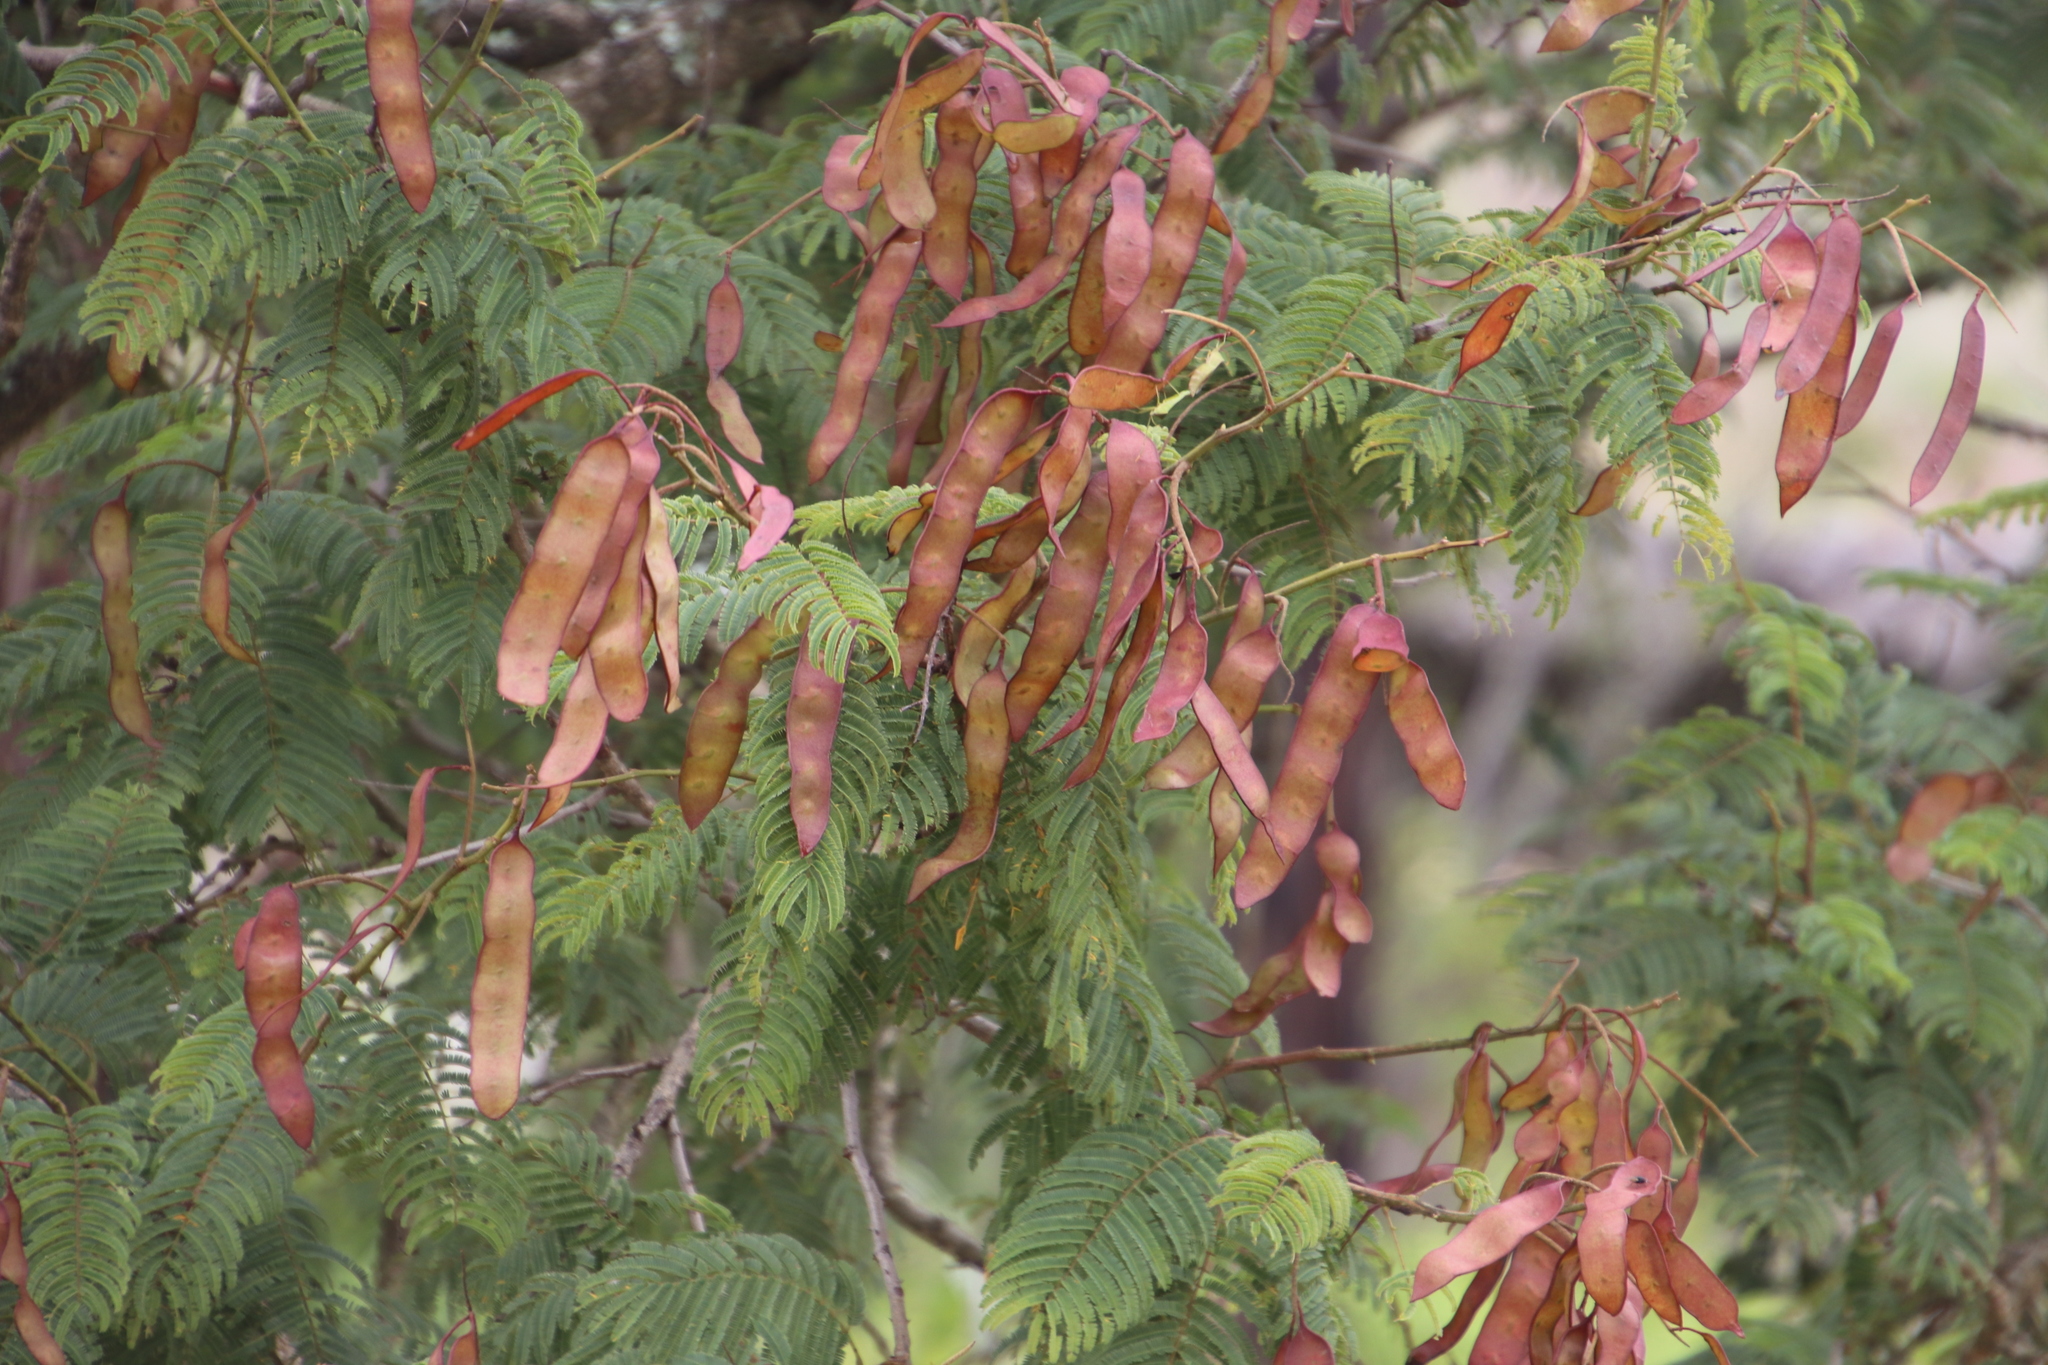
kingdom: Plantae
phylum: Tracheophyta
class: Magnoliopsida
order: Fabales
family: Fabaceae
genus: Senegalia
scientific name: Senegalia ataxacantha
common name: Flame acacia
